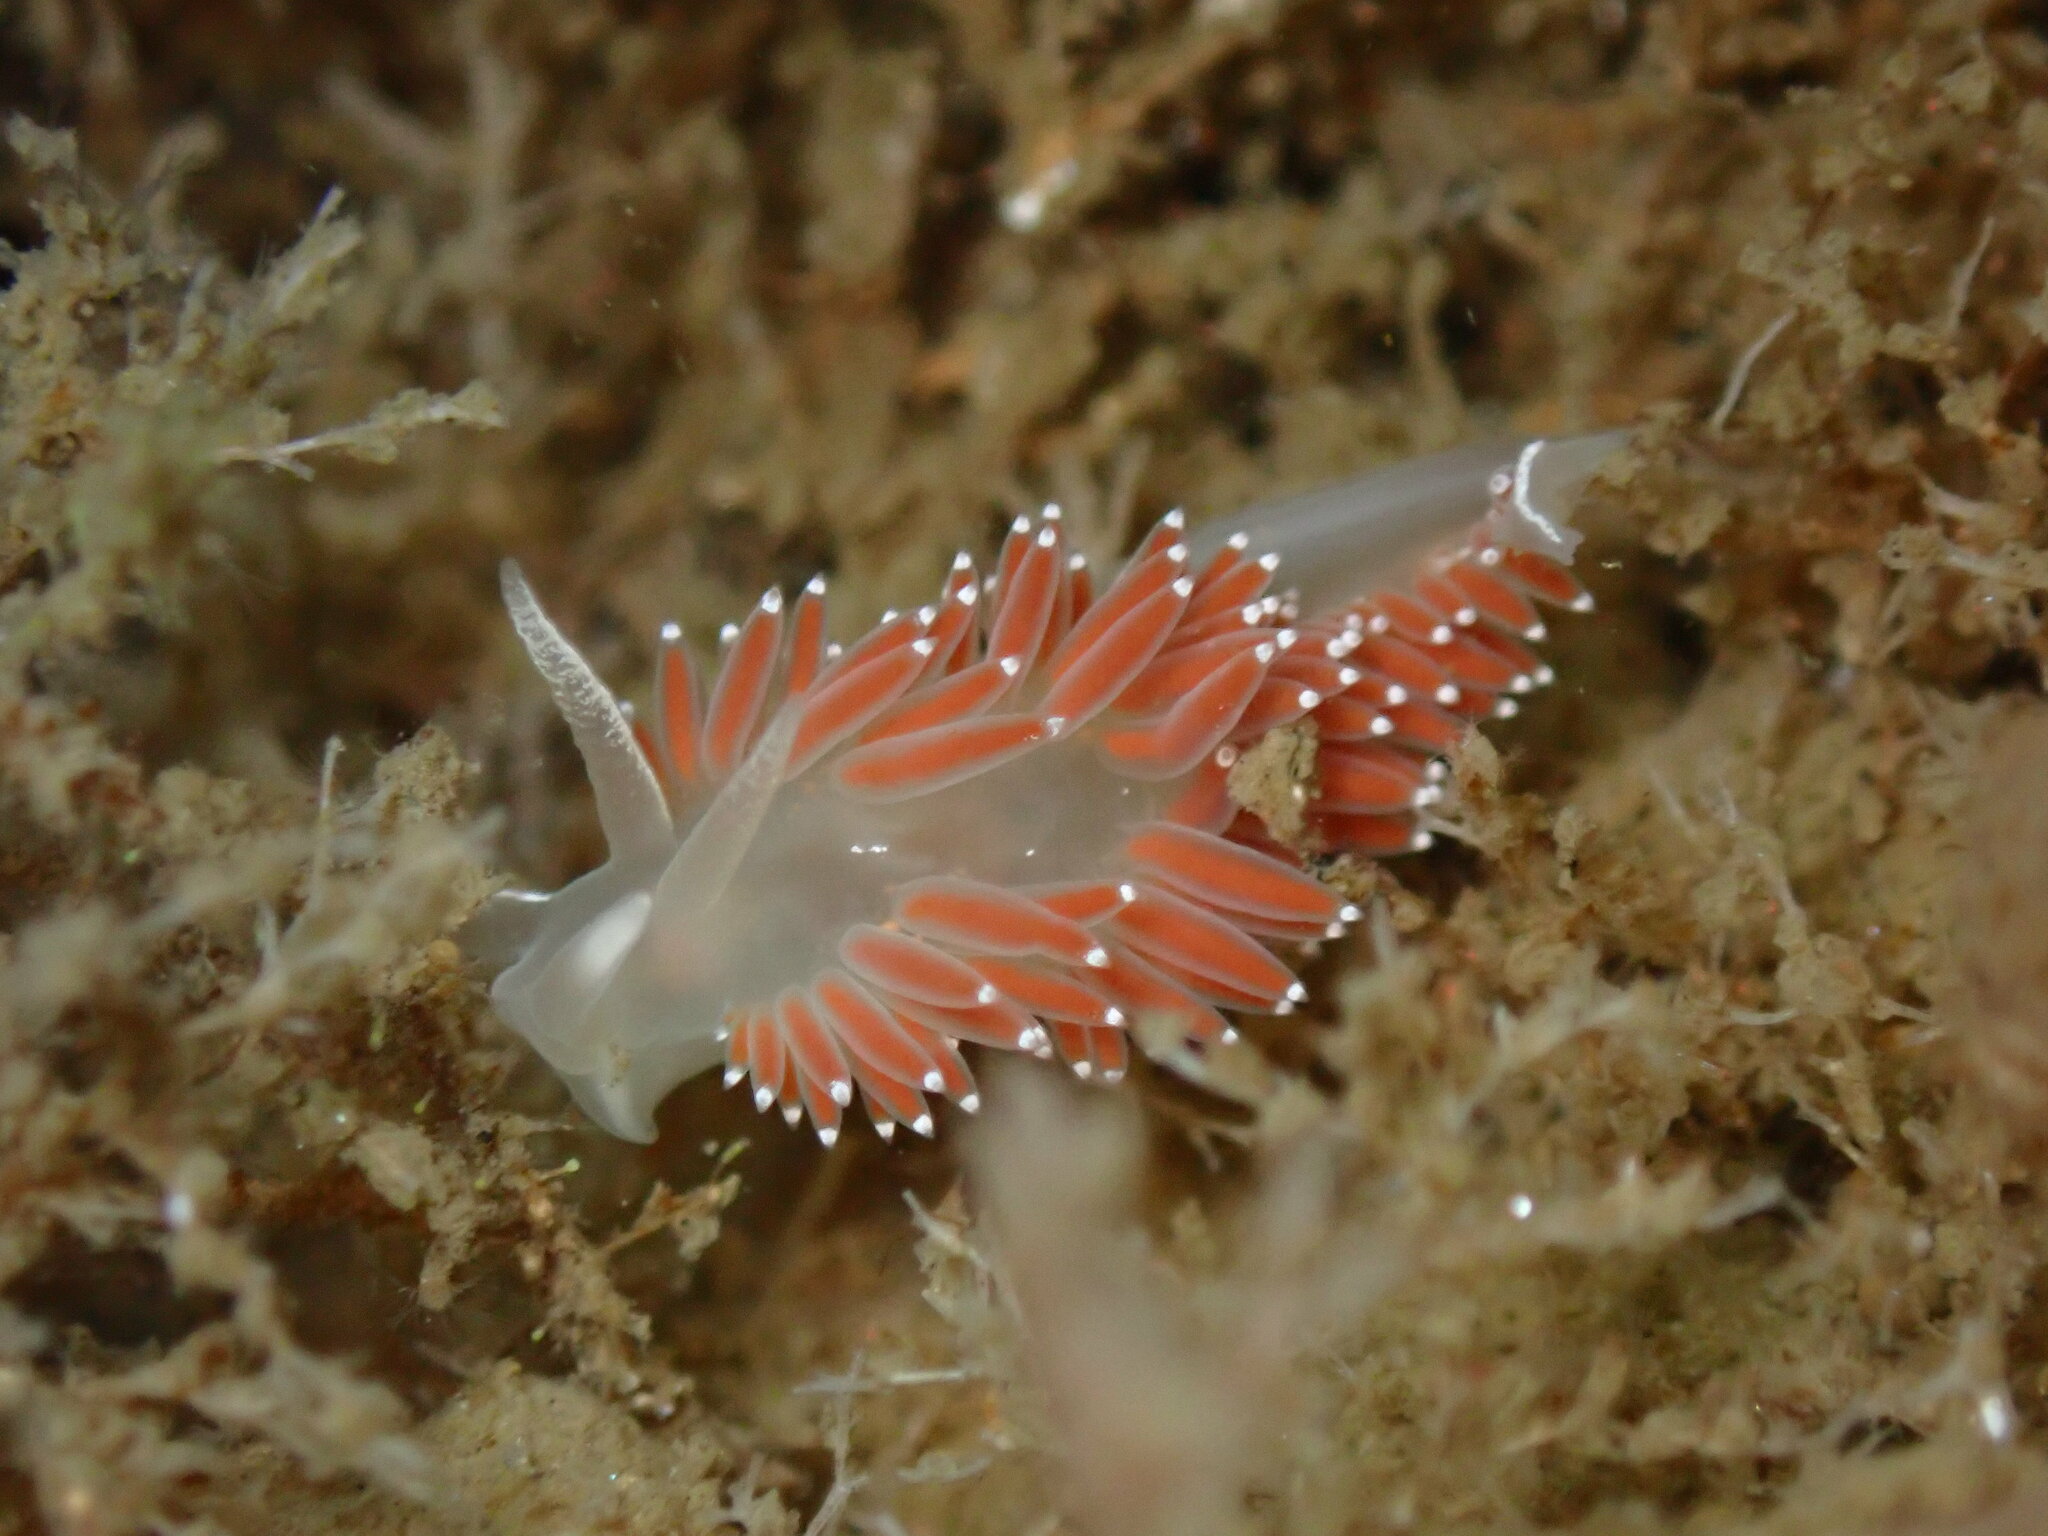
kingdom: Animalia
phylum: Mollusca
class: Gastropoda
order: Nudibranchia
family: Coryphellidae
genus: Coryphella
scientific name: Coryphella verrucosa
